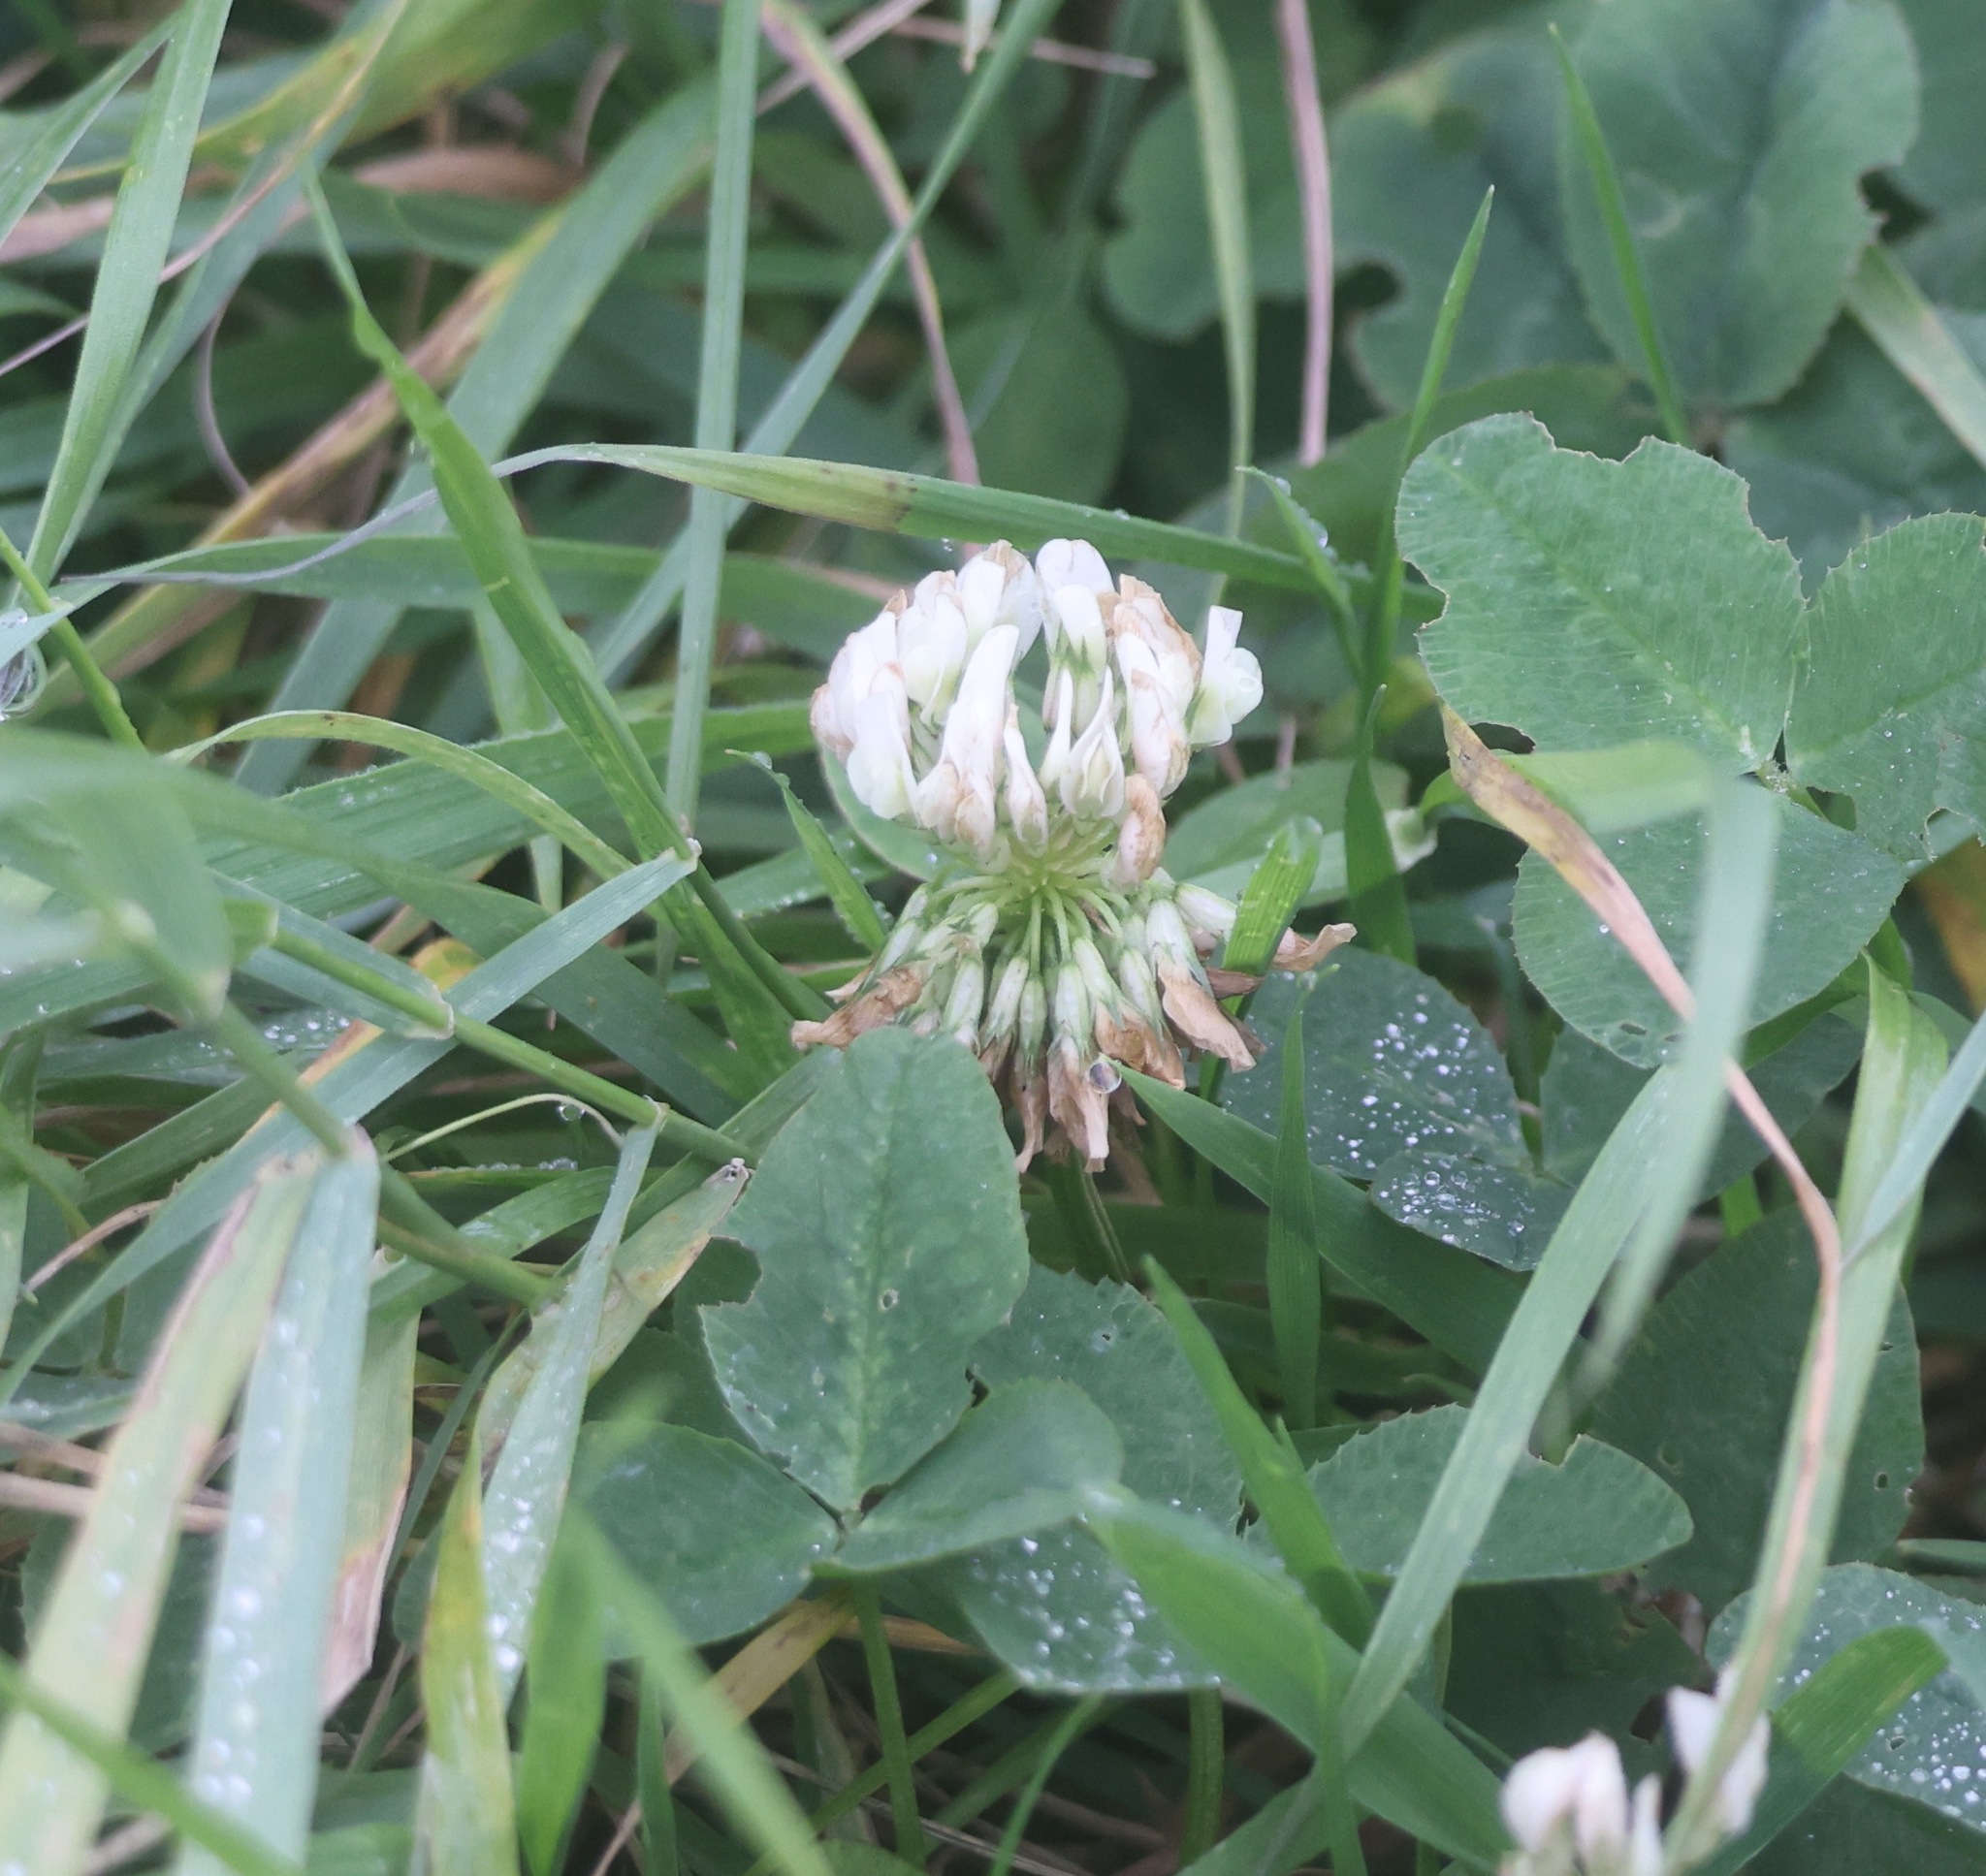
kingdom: Plantae
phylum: Tracheophyta
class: Magnoliopsida
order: Fabales
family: Fabaceae
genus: Trifolium
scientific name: Trifolium repens
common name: White clover
